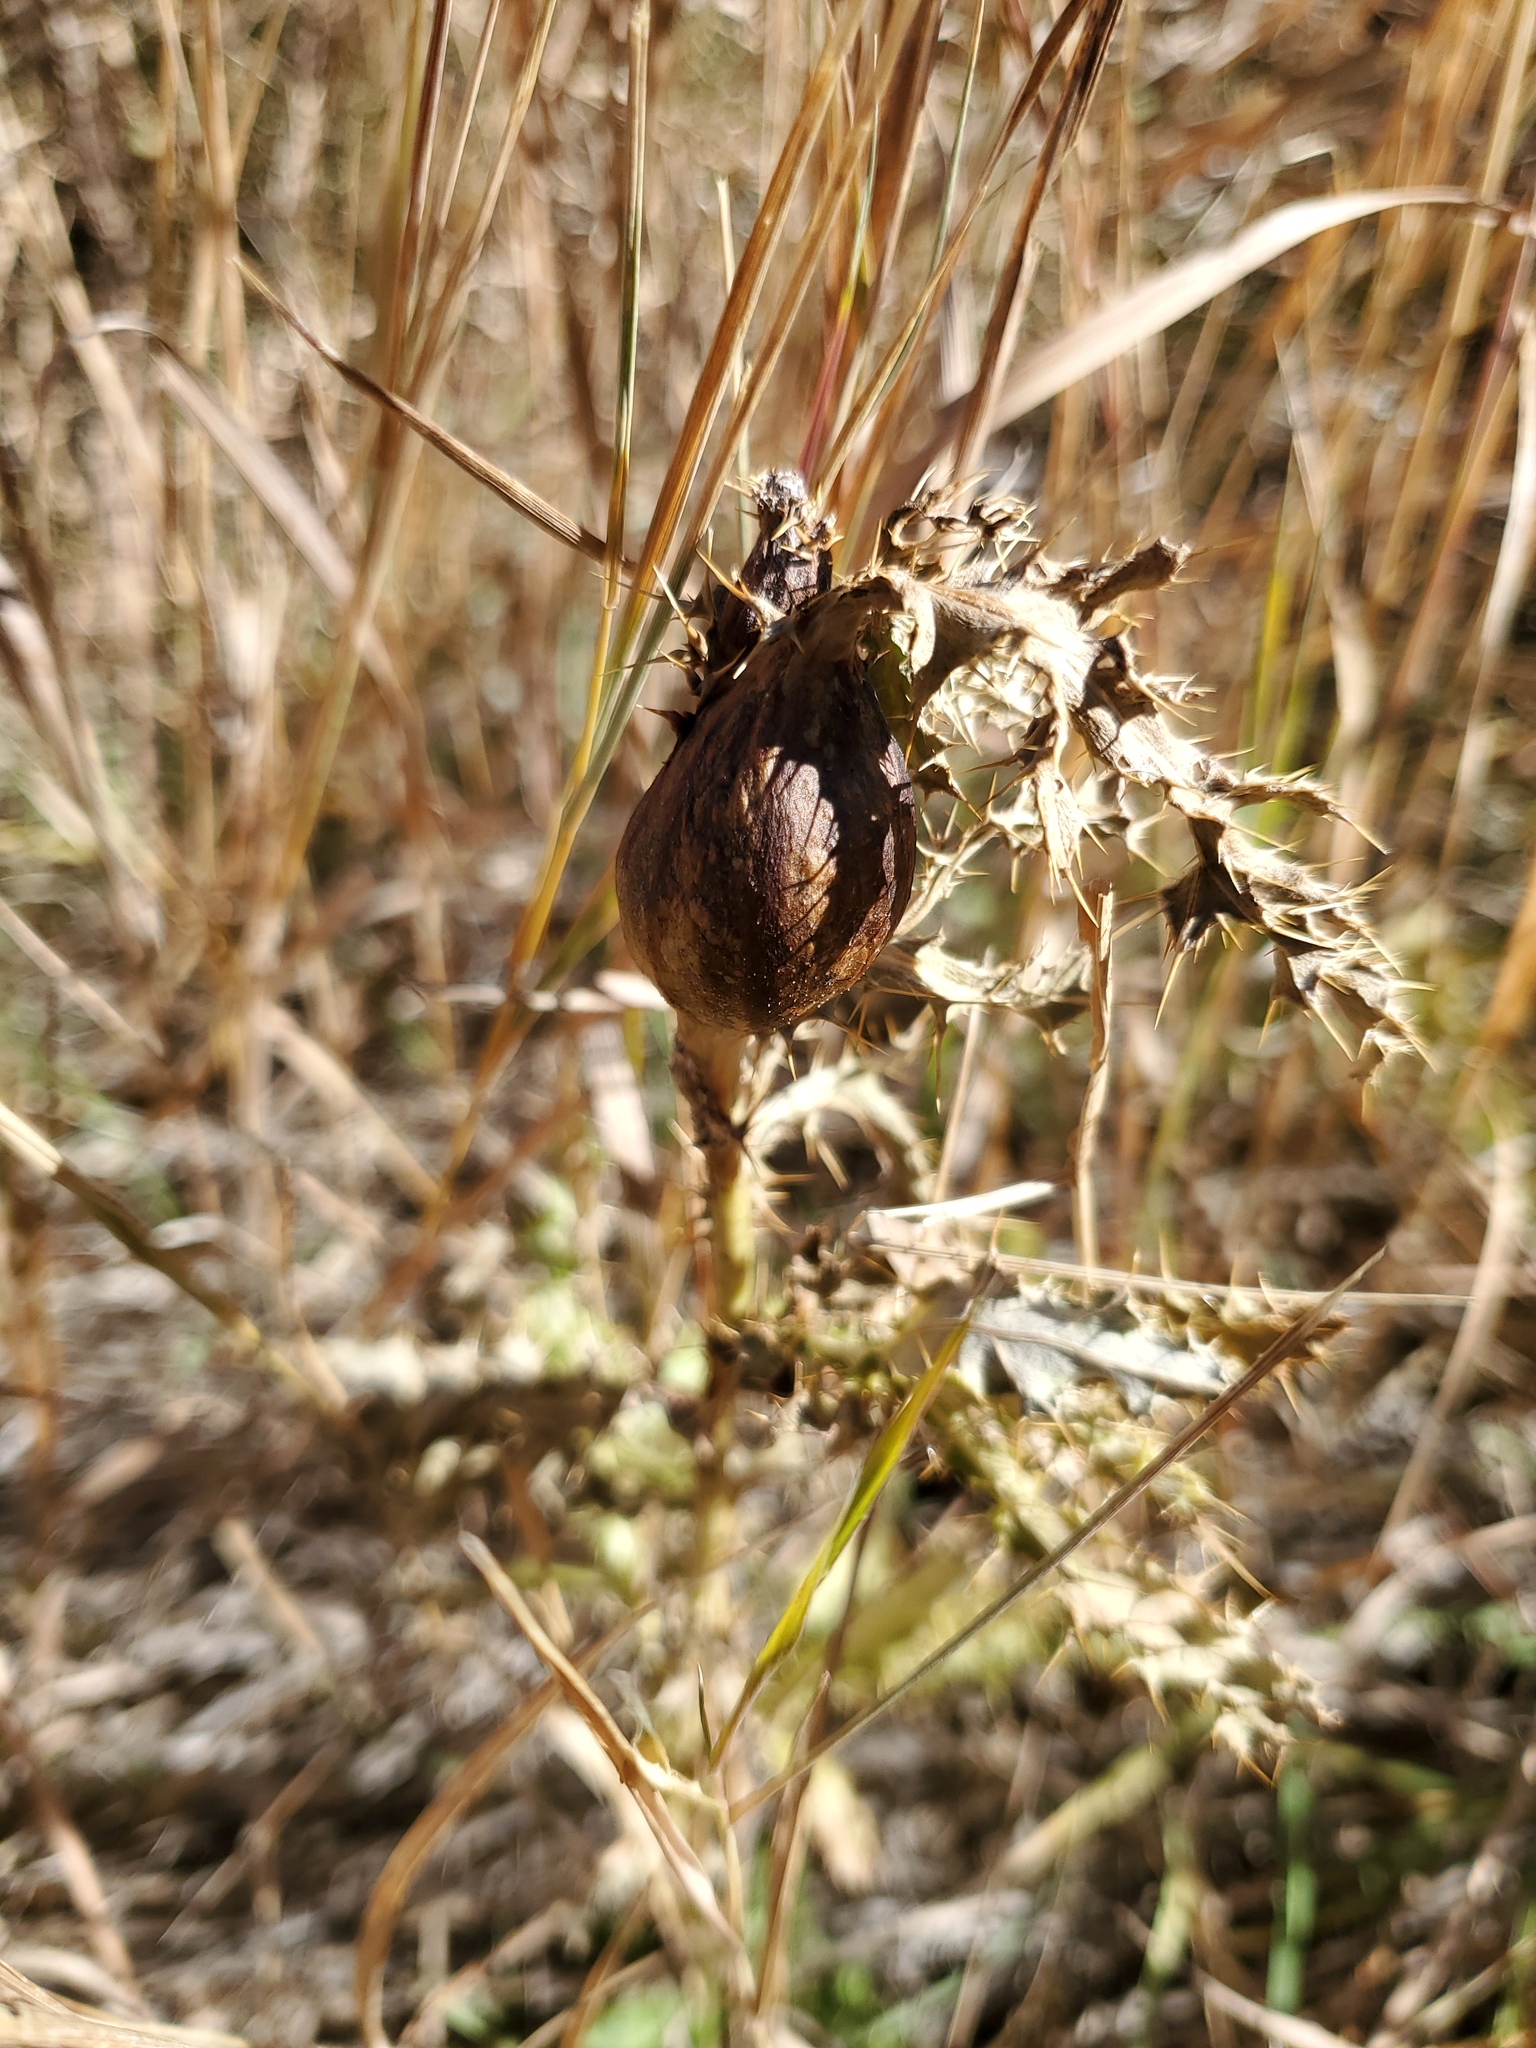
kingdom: Animalia
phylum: Arthropoda
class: Insecta
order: Diptera
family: Tephritidae
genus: Urophora
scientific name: Urophora cardui
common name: Fruit fly
